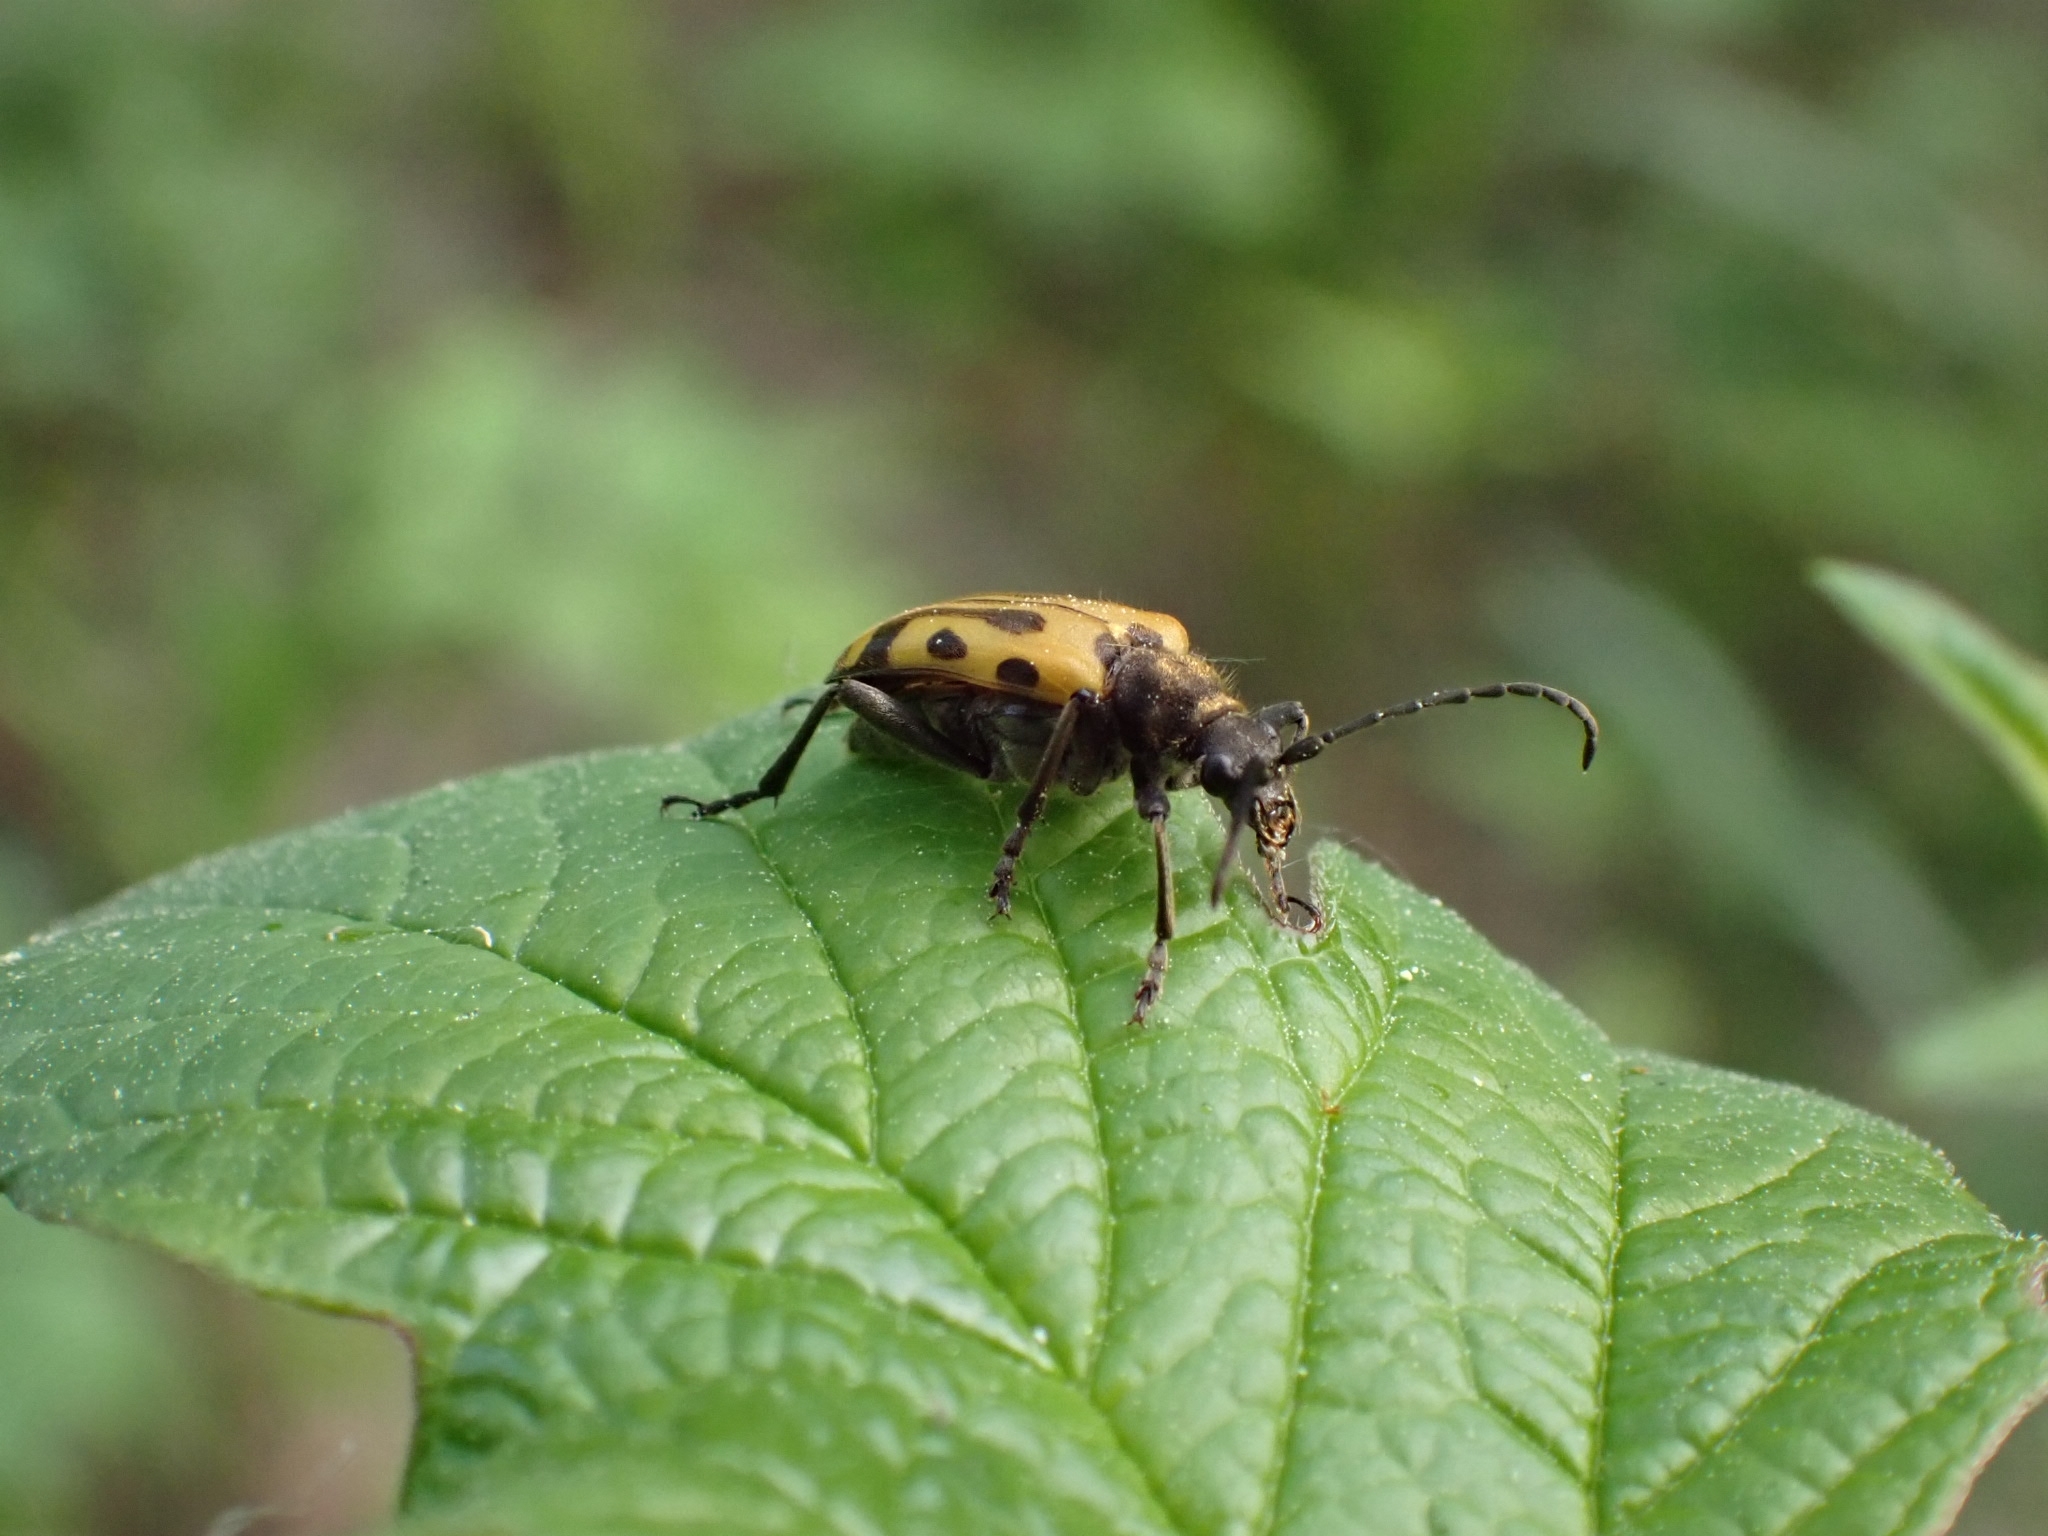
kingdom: Animalia
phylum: Arthropoda
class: Insecta
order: Coleoptera
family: Cerambycidae
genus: Brachyta
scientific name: Brachyta interrogationis
